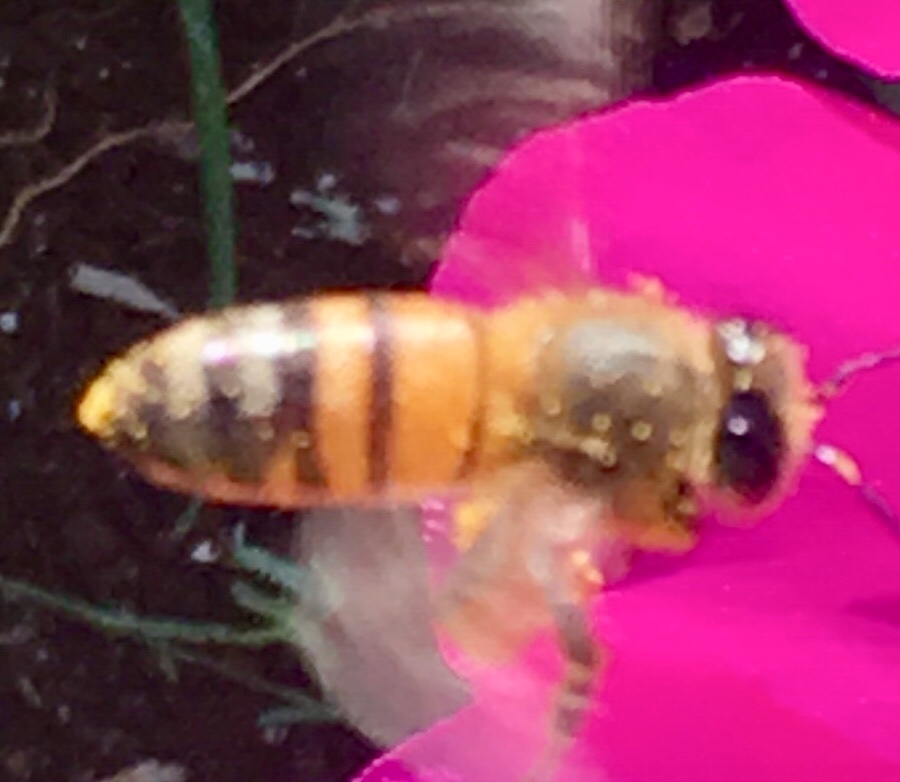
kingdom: Animalia
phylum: Arthropoda
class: Insecta
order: Hymenoptera
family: Apidae
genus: Apis
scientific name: Apis mellifera
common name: Honey bee
